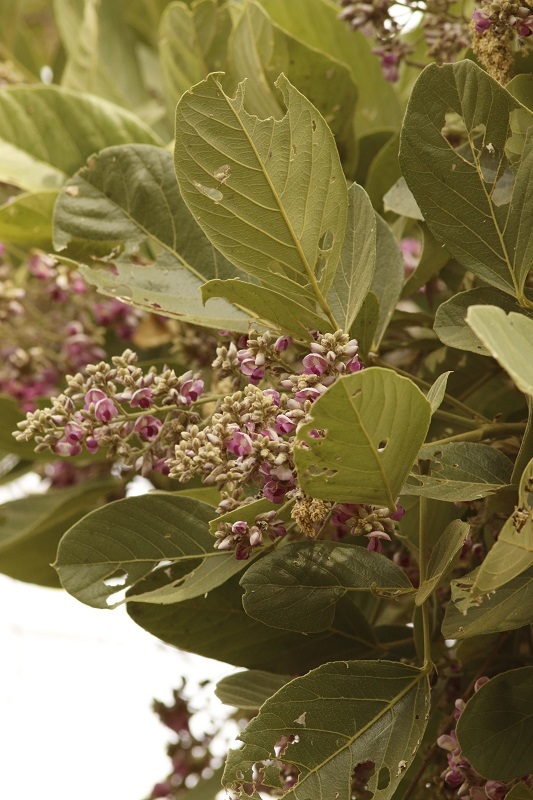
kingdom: Plantae
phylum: Tracheophyta
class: Magnoliopsida
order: Fabales
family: Fabaceae
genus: Philenoptera
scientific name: Philenoptera violacea
